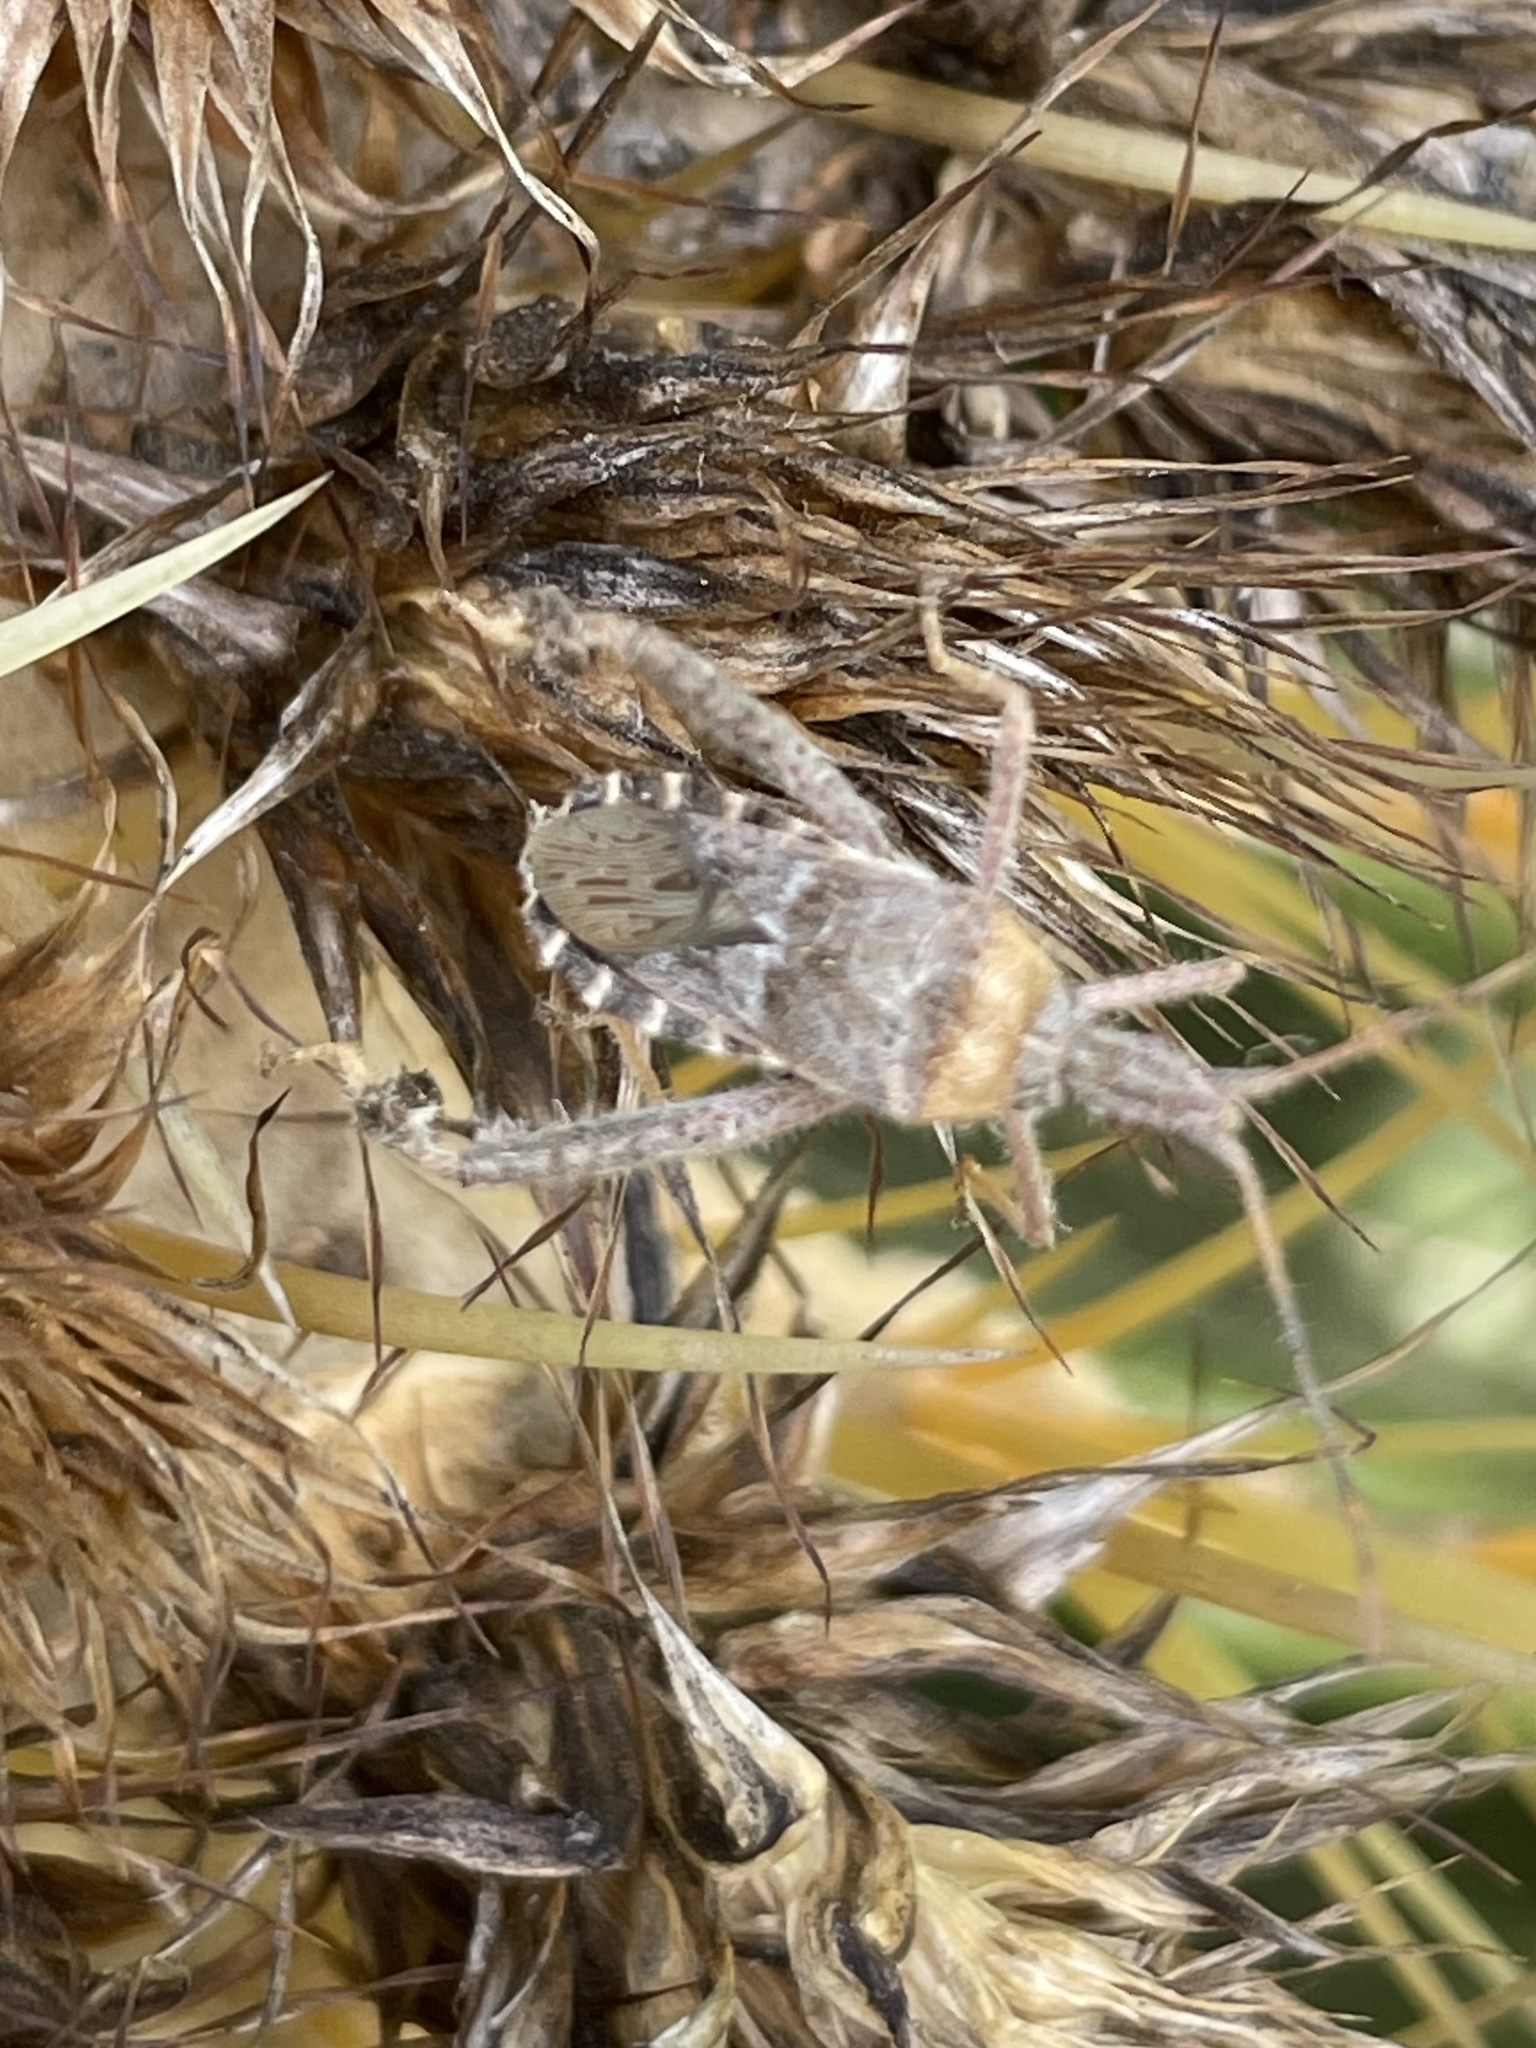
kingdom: Animalia
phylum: Arthropoda
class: Insecta
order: Hemiptera
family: Coreidae
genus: Narnia
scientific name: Narnia femorata
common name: Leaf-footed cactus bug
